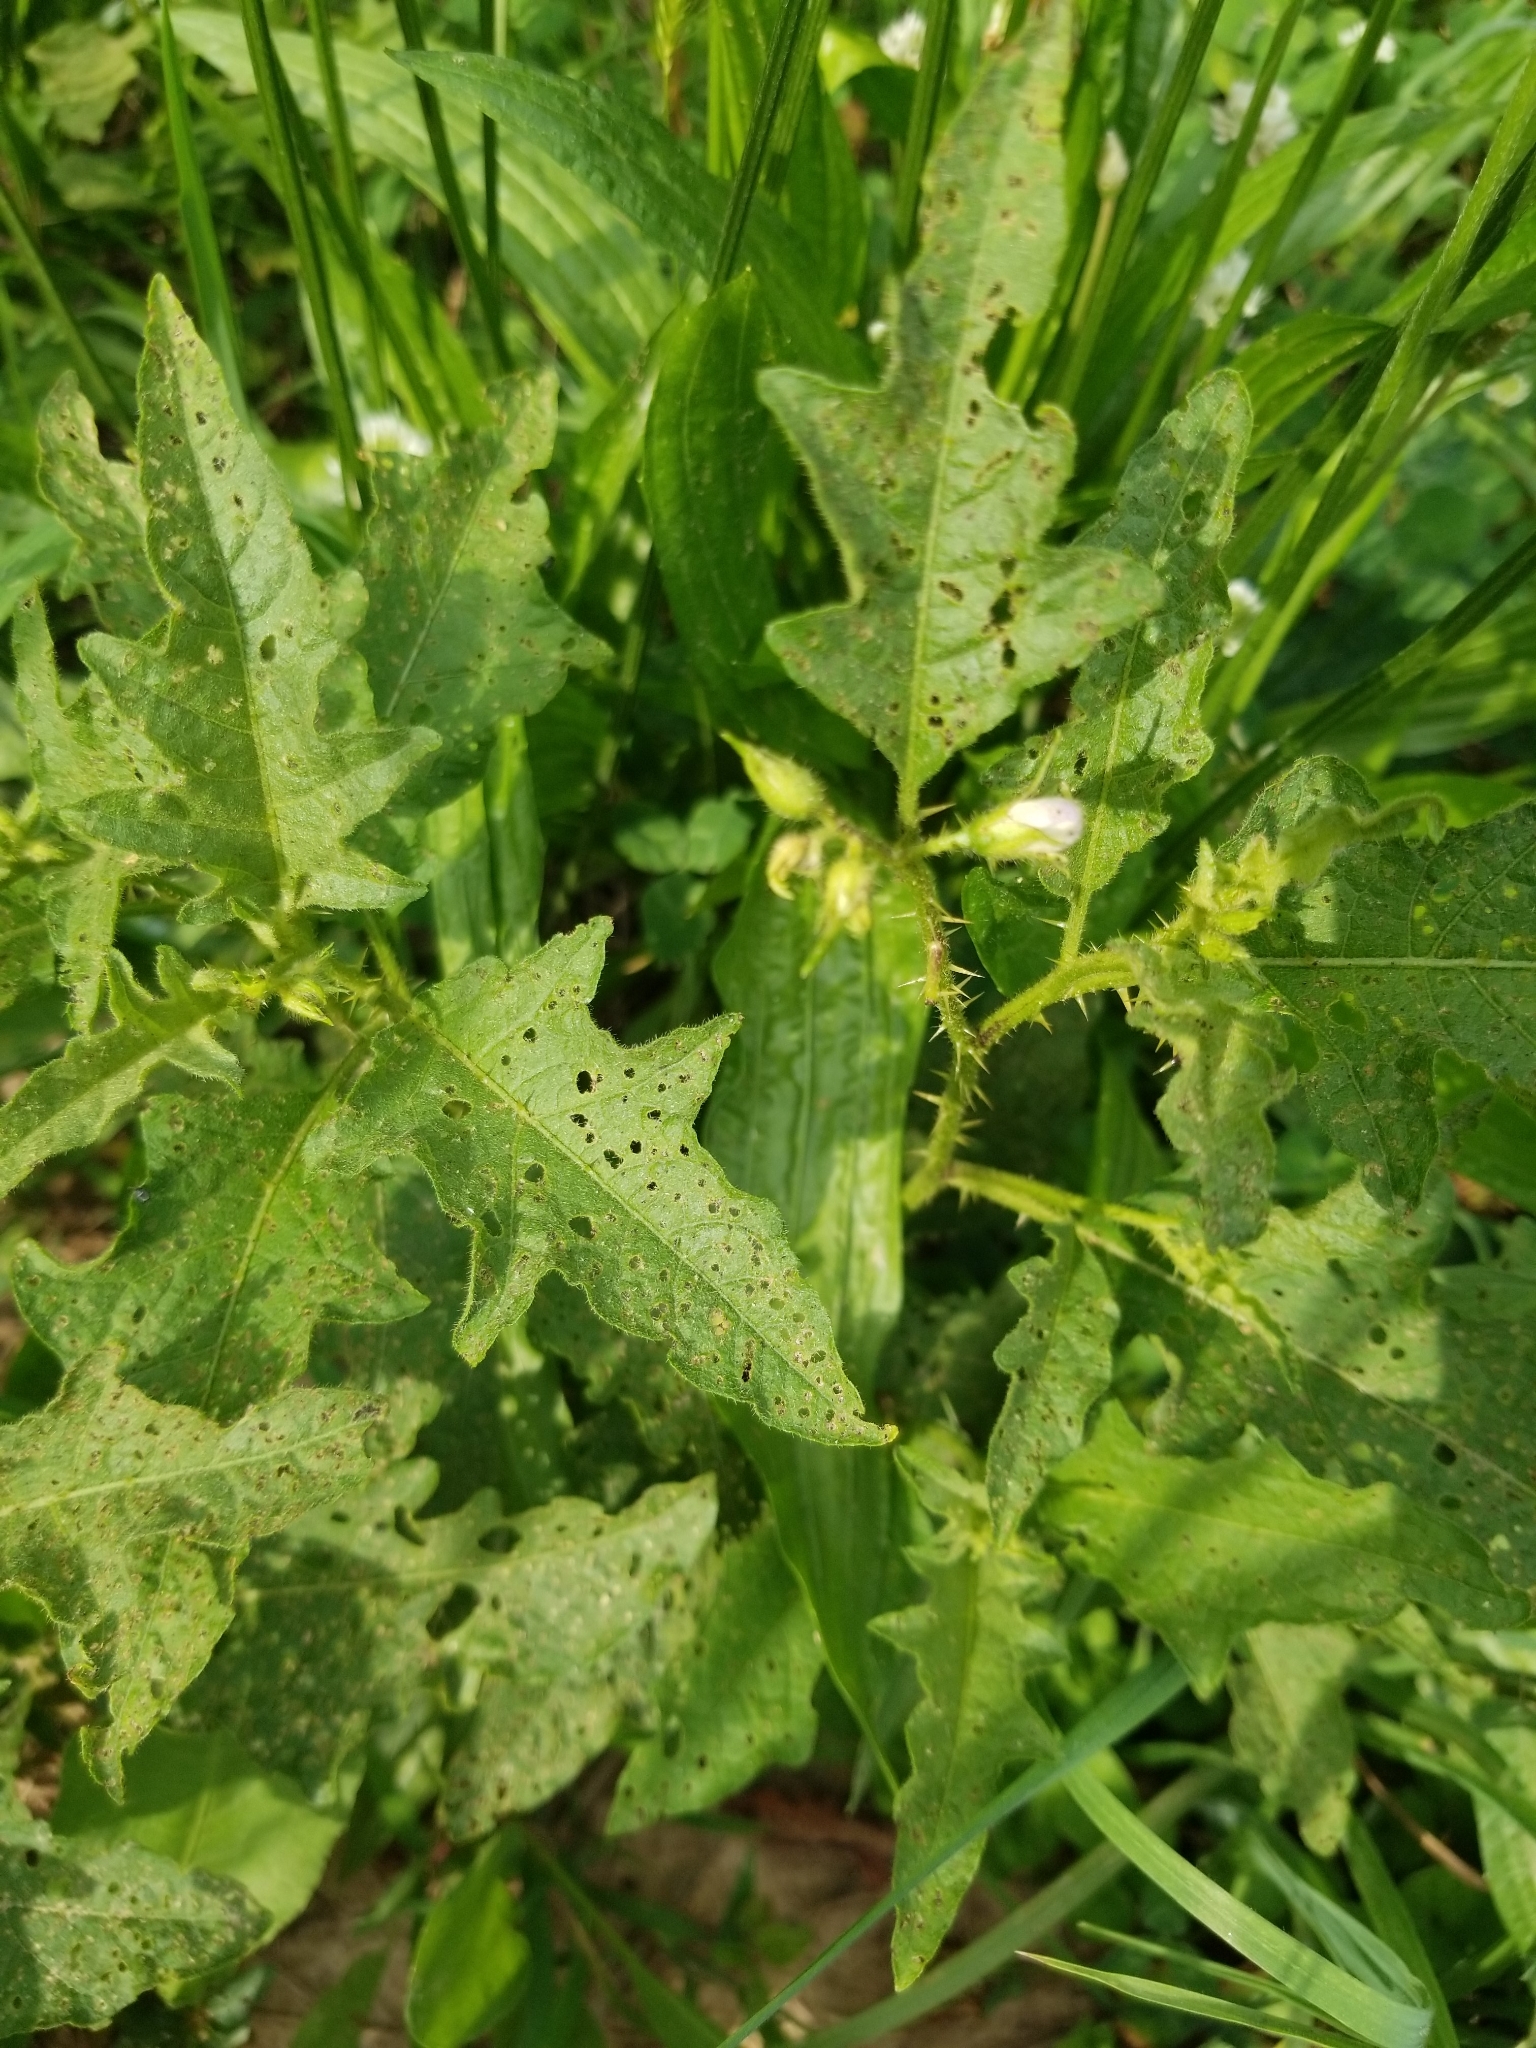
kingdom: Plantae
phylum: Tracheophyta
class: Magnoliopsida
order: Solanales
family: Solanaceae
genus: Solanum
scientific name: Solanum carolinense
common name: Horse-nettle
